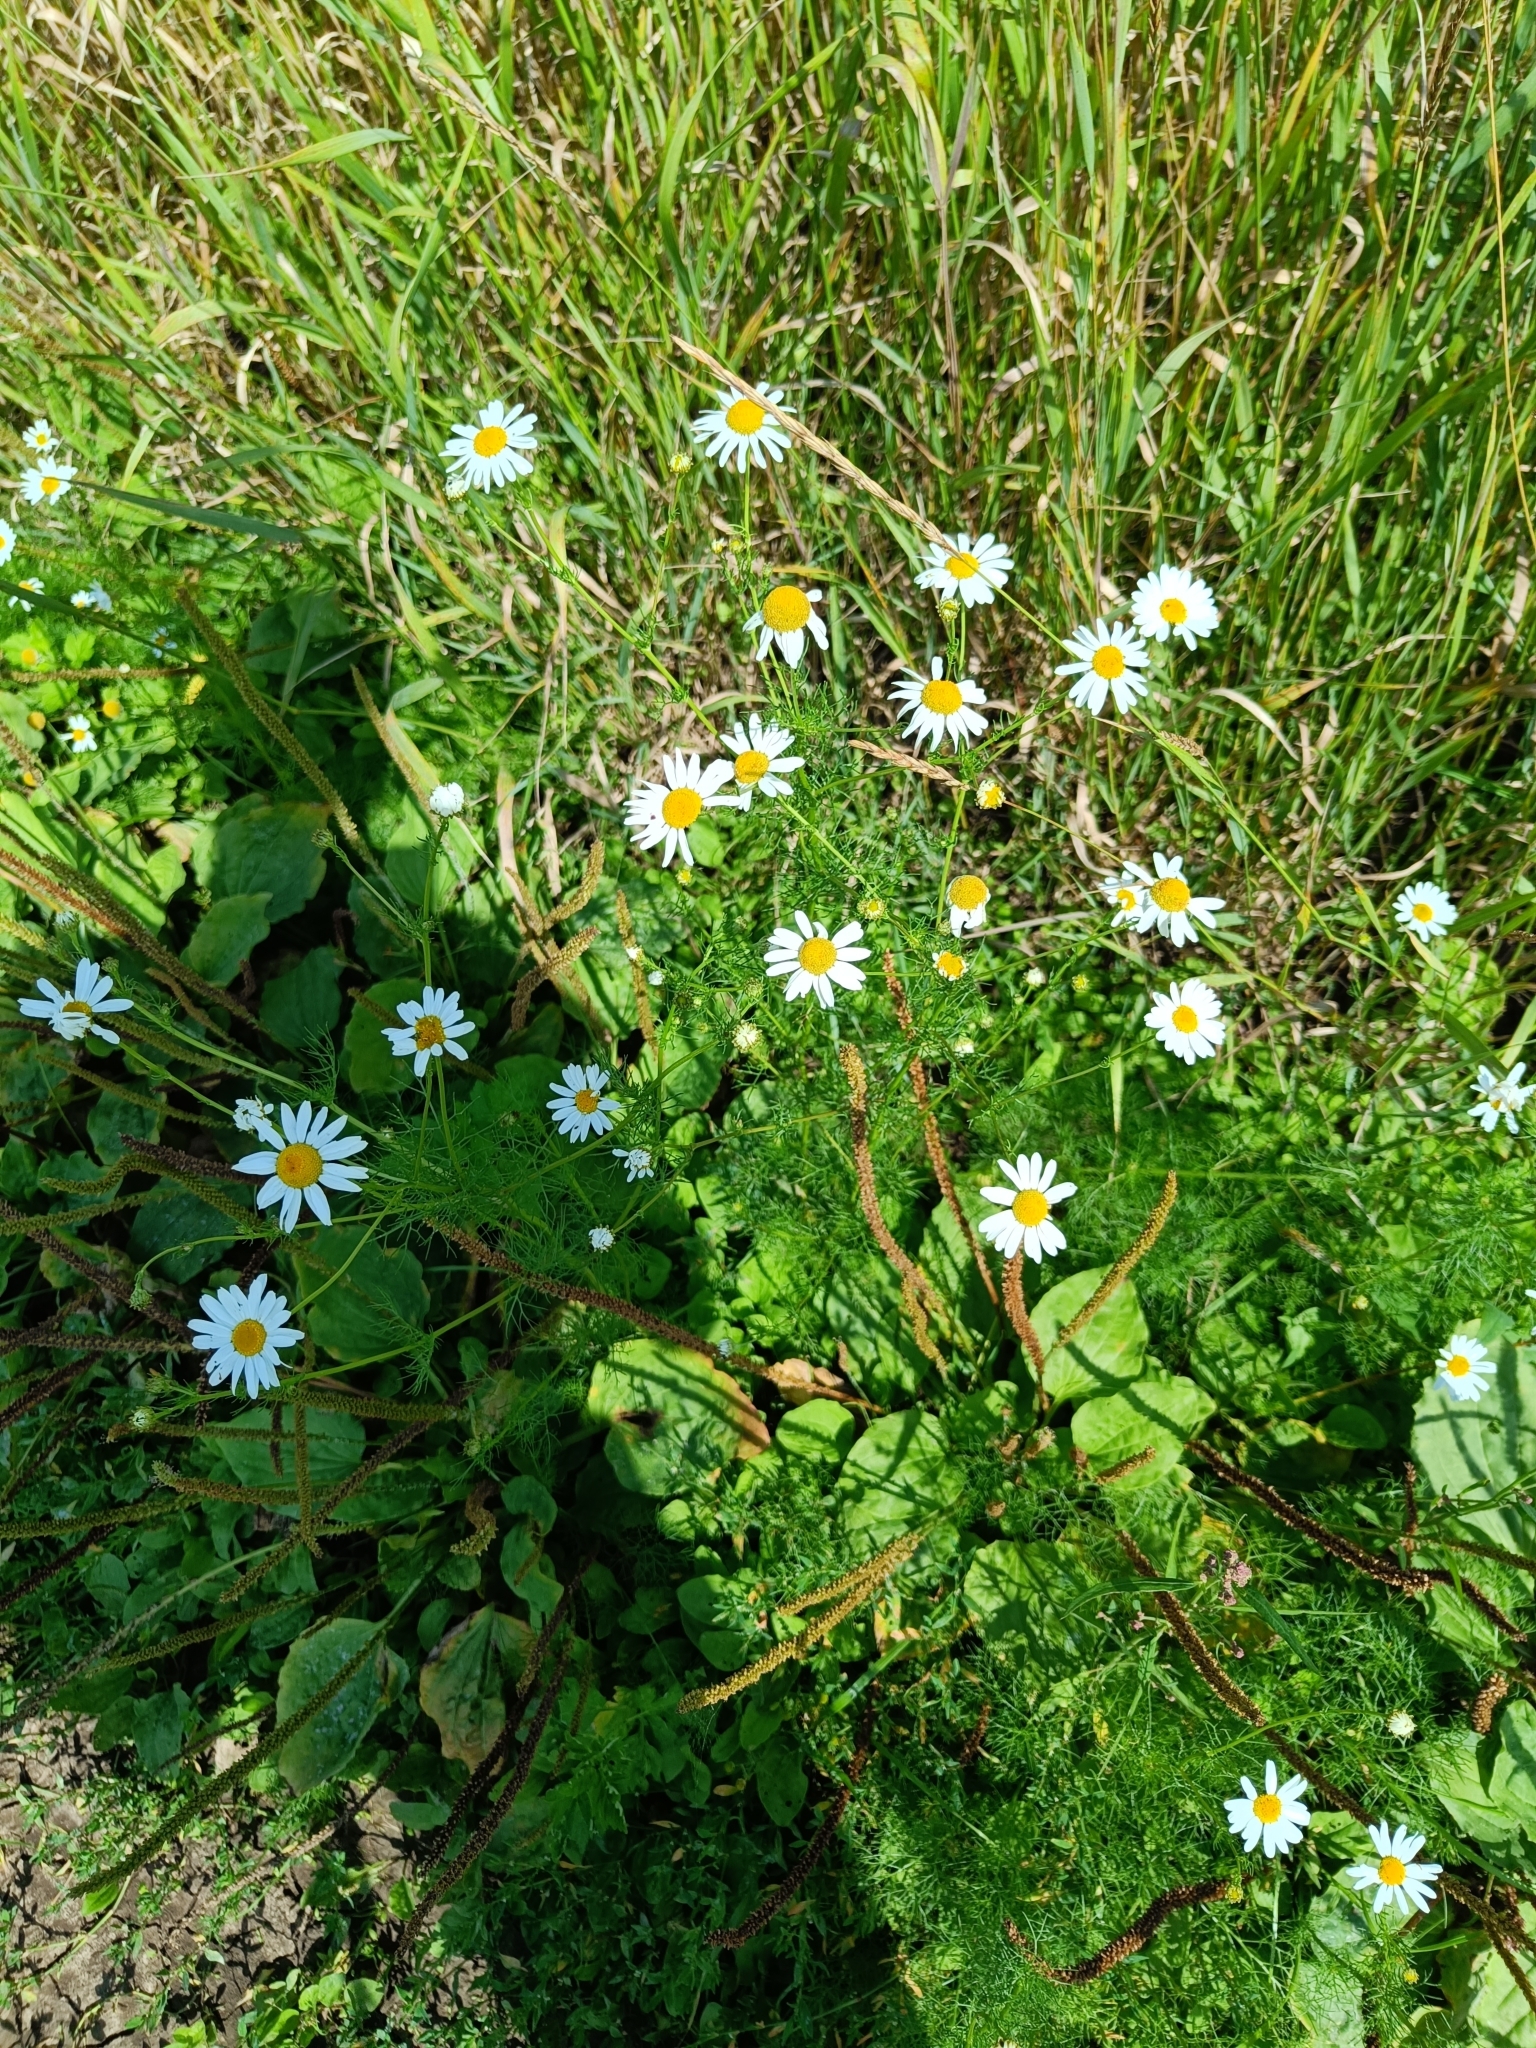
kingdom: Plantae
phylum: Tracheophyta
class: Magnoliopsida
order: Asterales
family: Asteraceae
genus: Tripleurospermum
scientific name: Tripleurospermum inodorum
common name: Scentless mayweed
